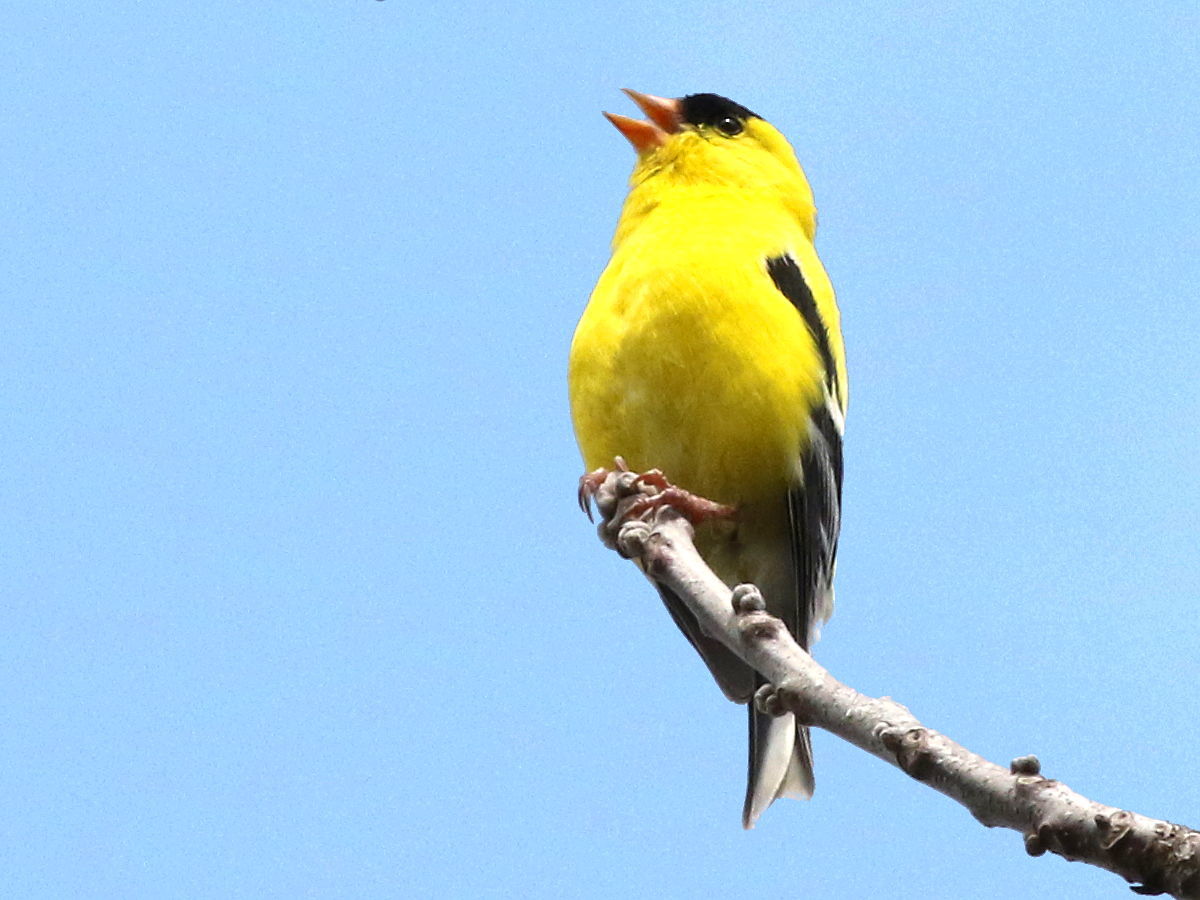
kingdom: Animalia
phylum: Chordata
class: Aves
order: Passeriformes
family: Fringillidae
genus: Spinus
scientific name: Spinus tristis
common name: American goldfinch
